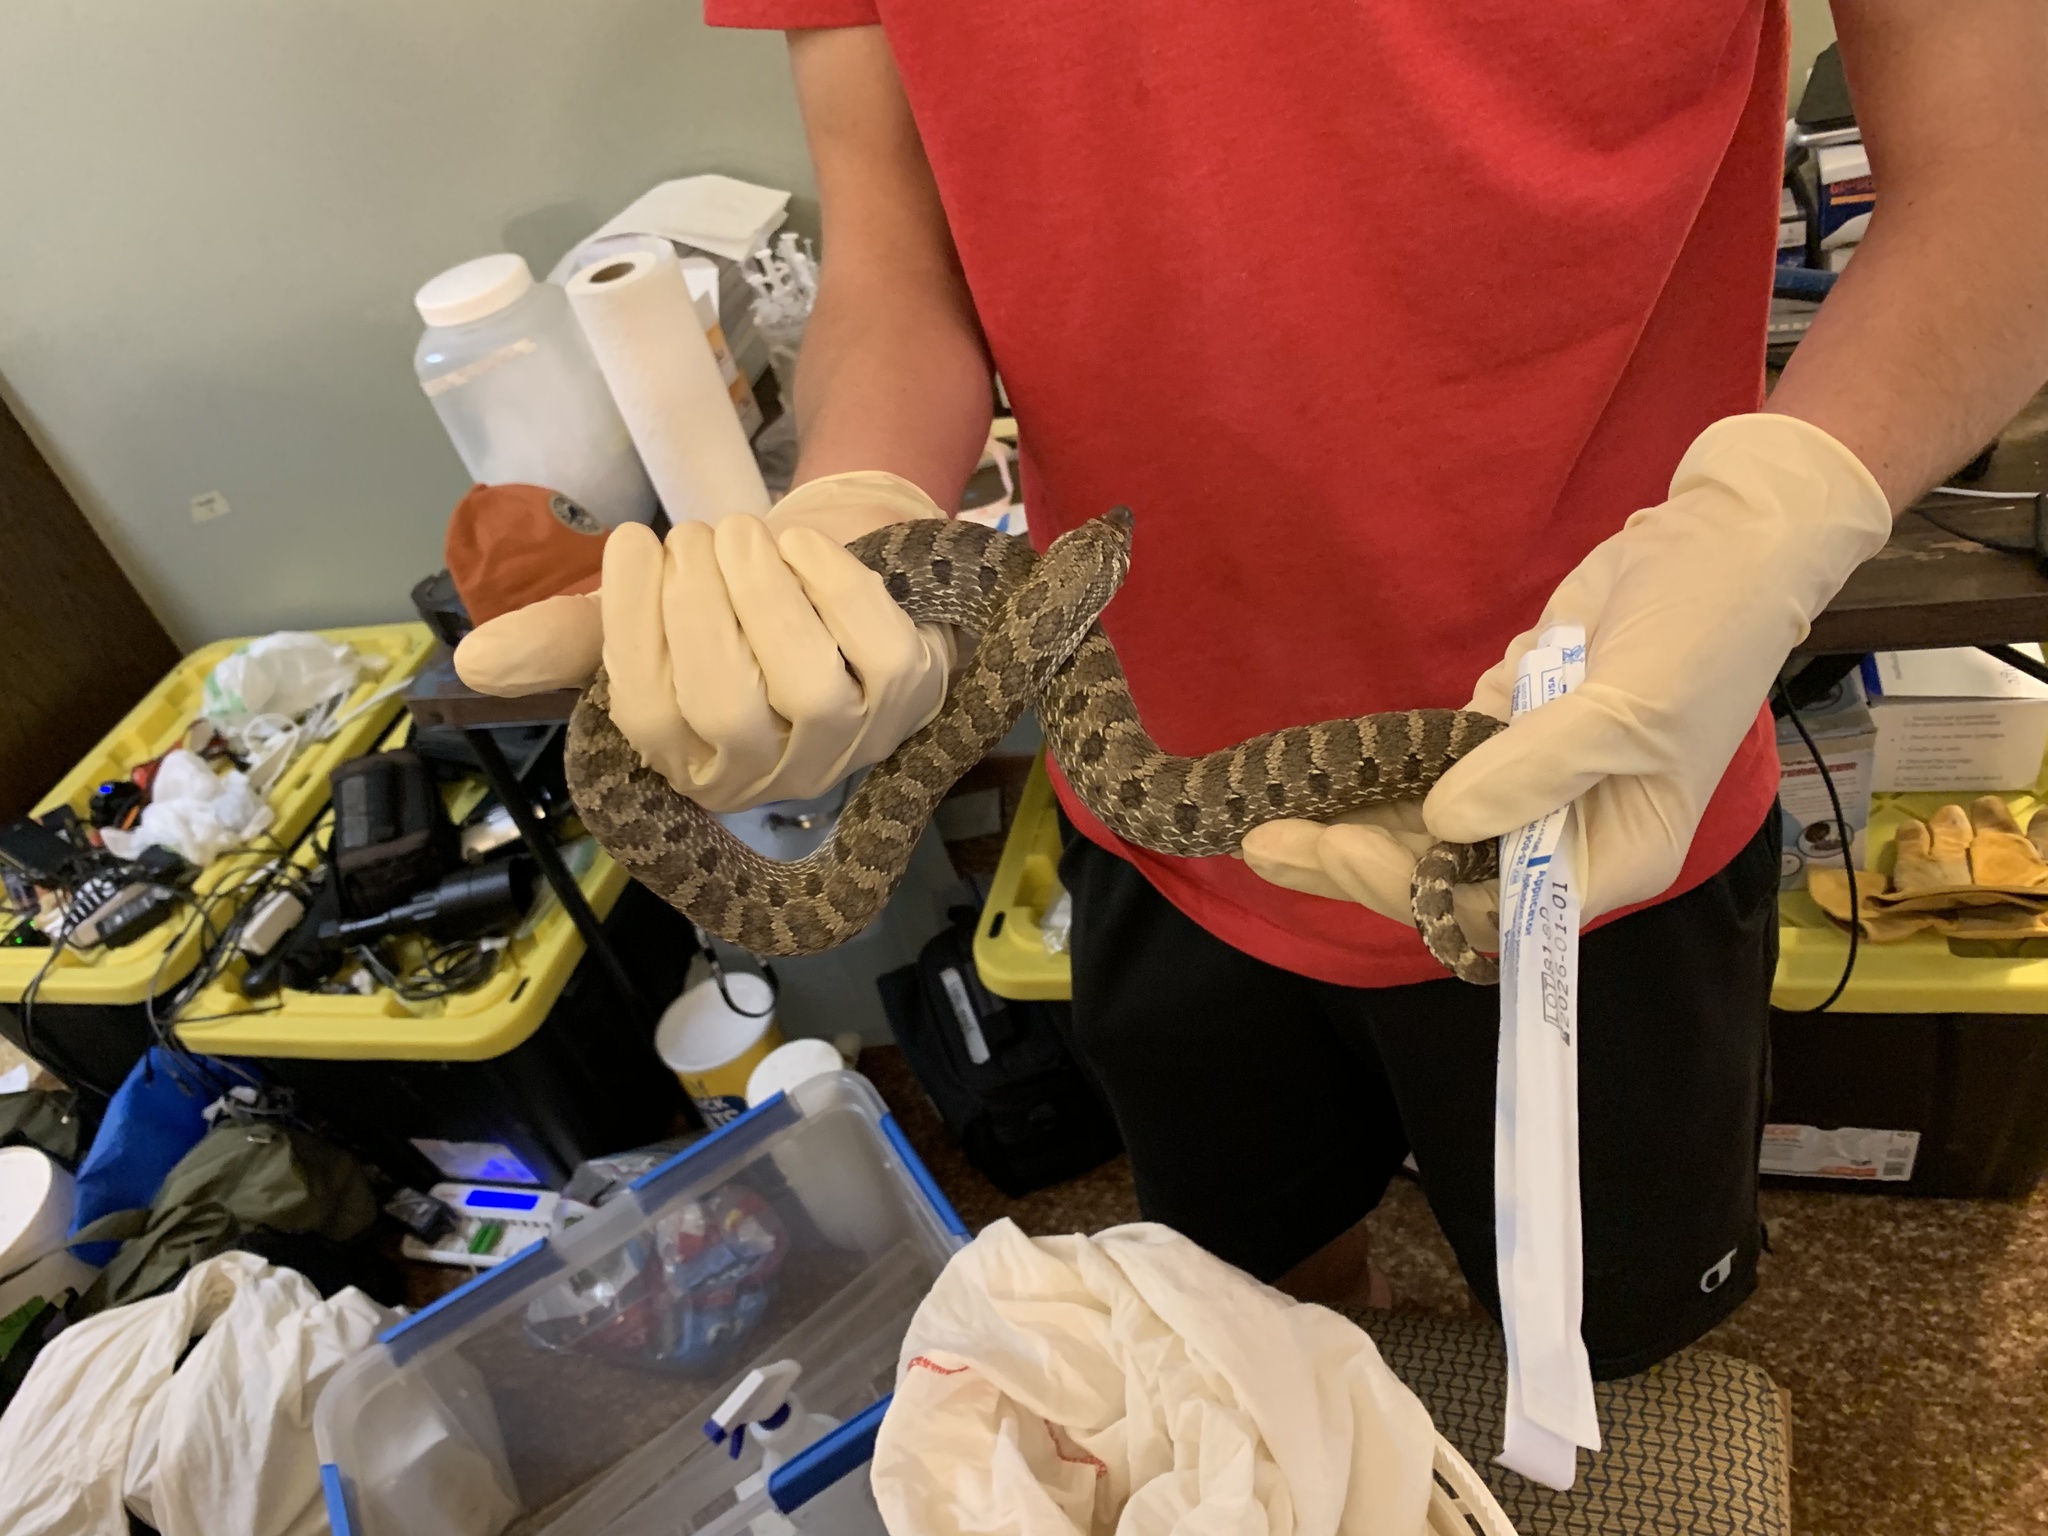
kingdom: Animalia
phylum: Chordata
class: Squamata
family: Colubridae
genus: Heterodon
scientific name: Heterodon nasicus
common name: Western hognose snake
